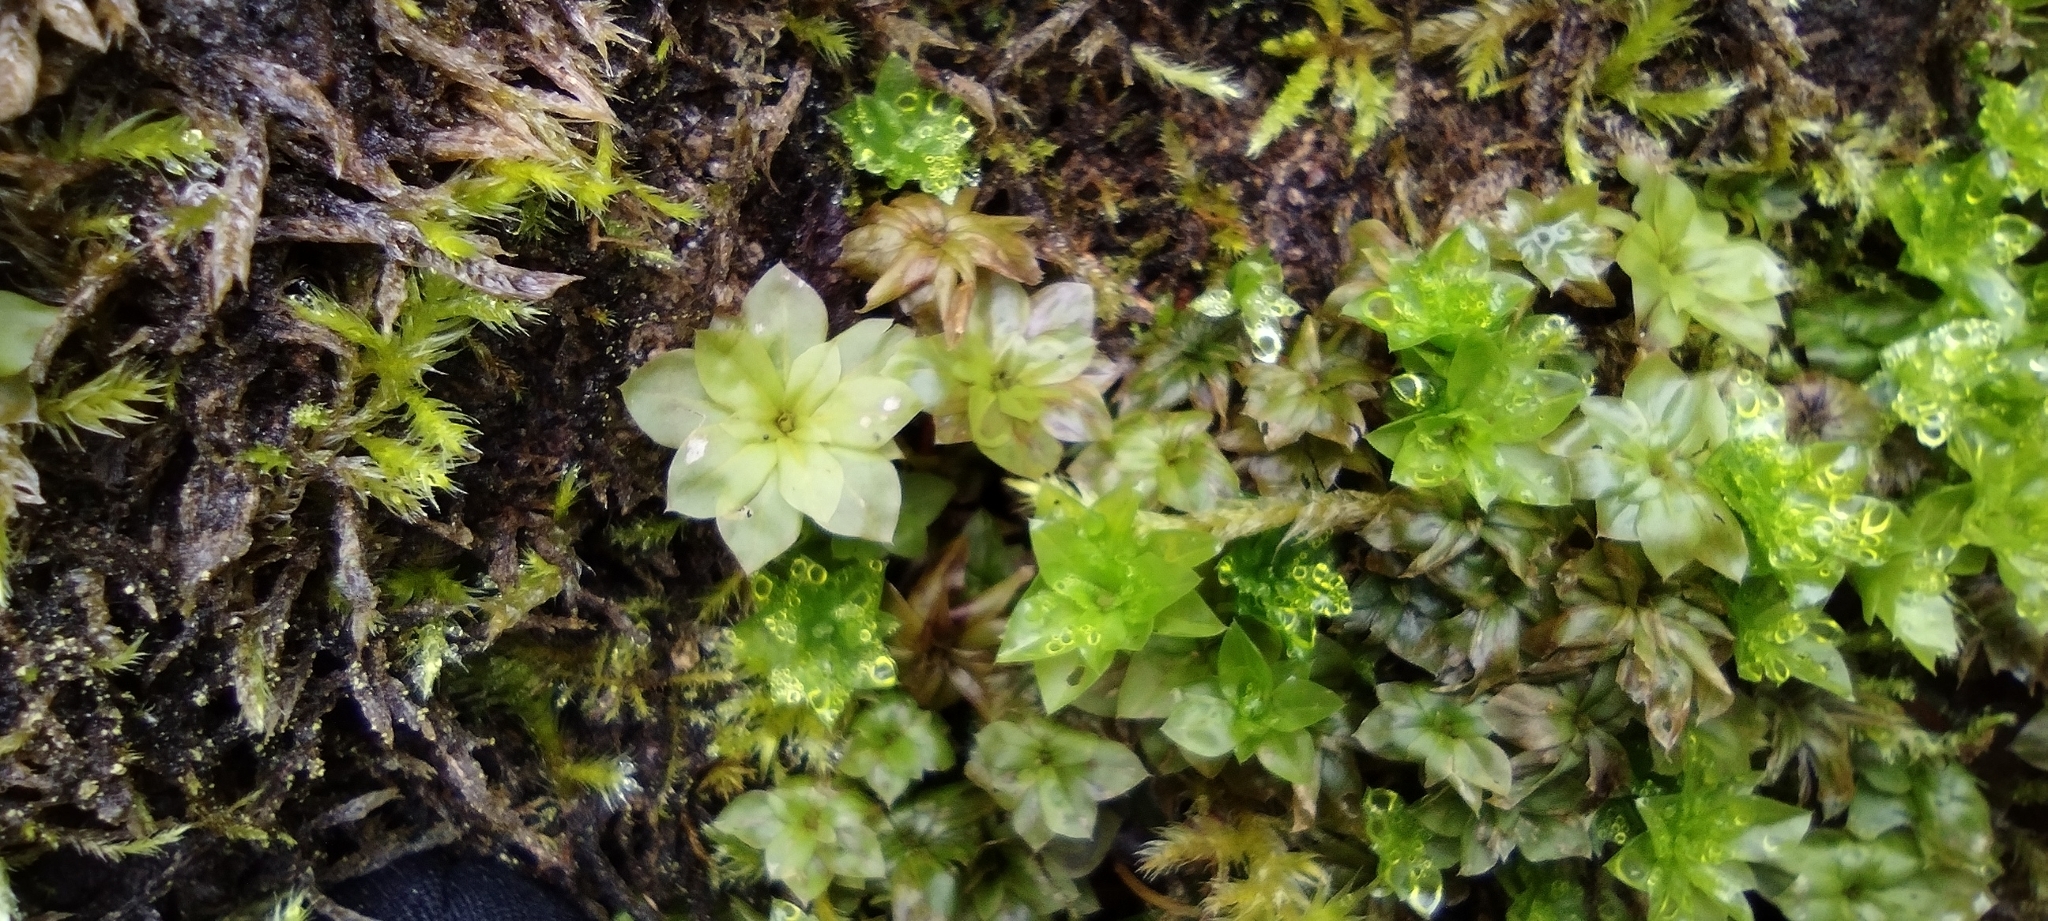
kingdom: Plantae
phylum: Bryophyta
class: Bryopsida
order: Bryales
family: Bryaceae
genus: Rhodobryum
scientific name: Rhodobryum roseum
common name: Rose-moss
